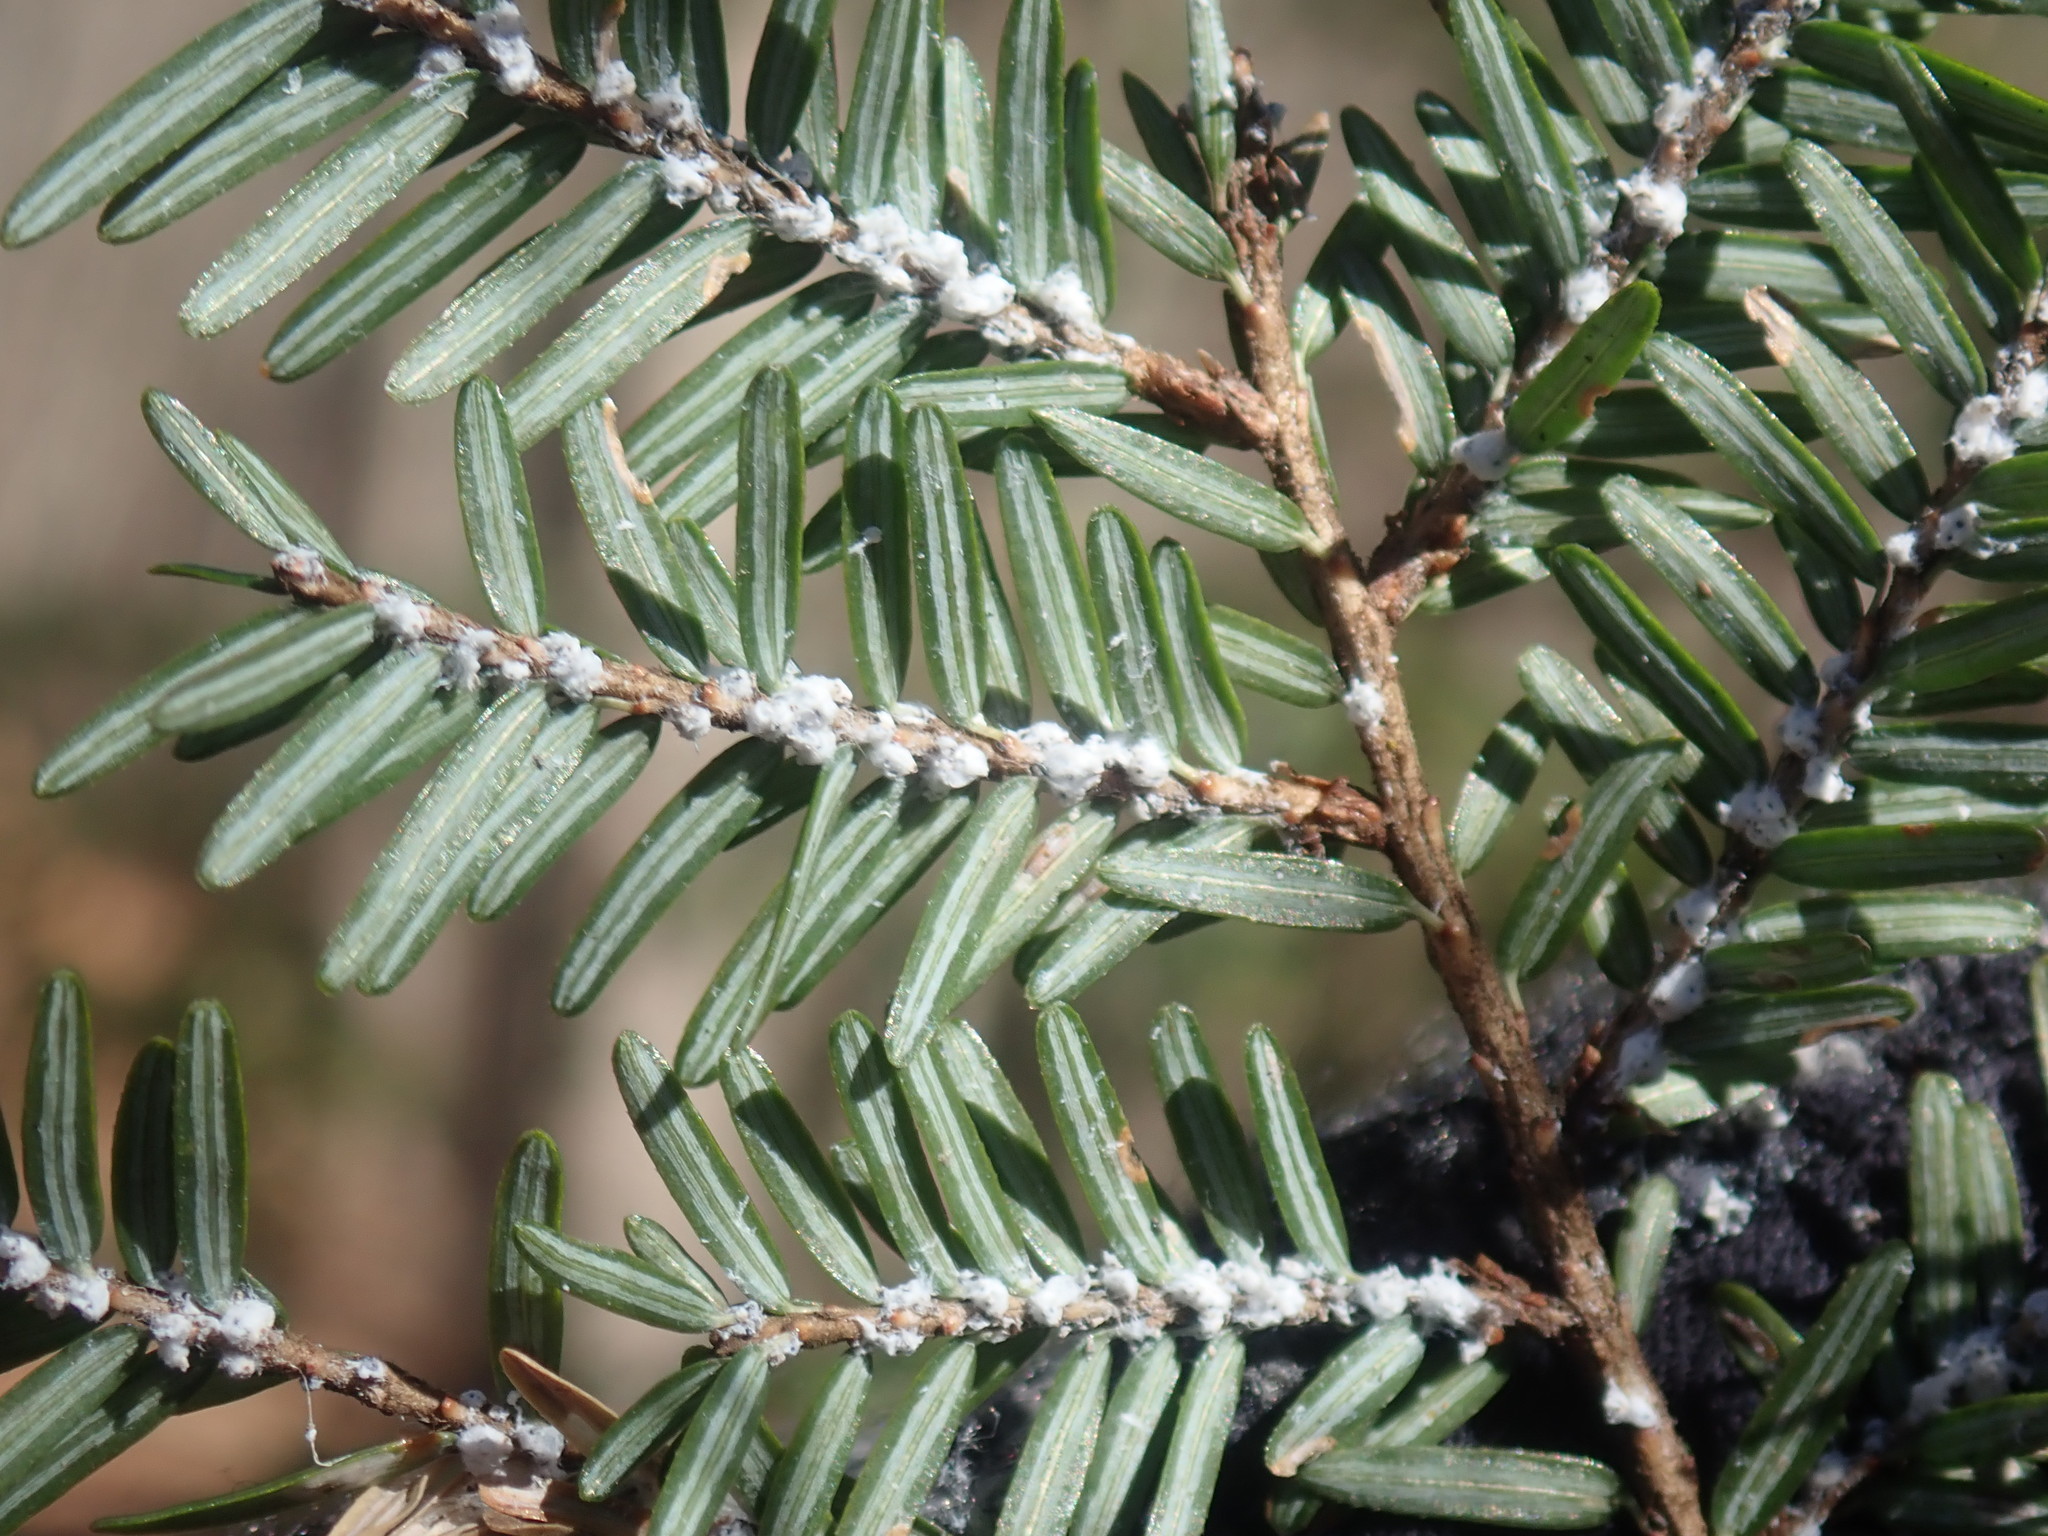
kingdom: Animalia
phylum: Arthropoda
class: Insecta
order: Hemiptera
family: Adelgidae
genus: Adelges
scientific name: Adelges tsugae
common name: Hemlock woolly adelgid
